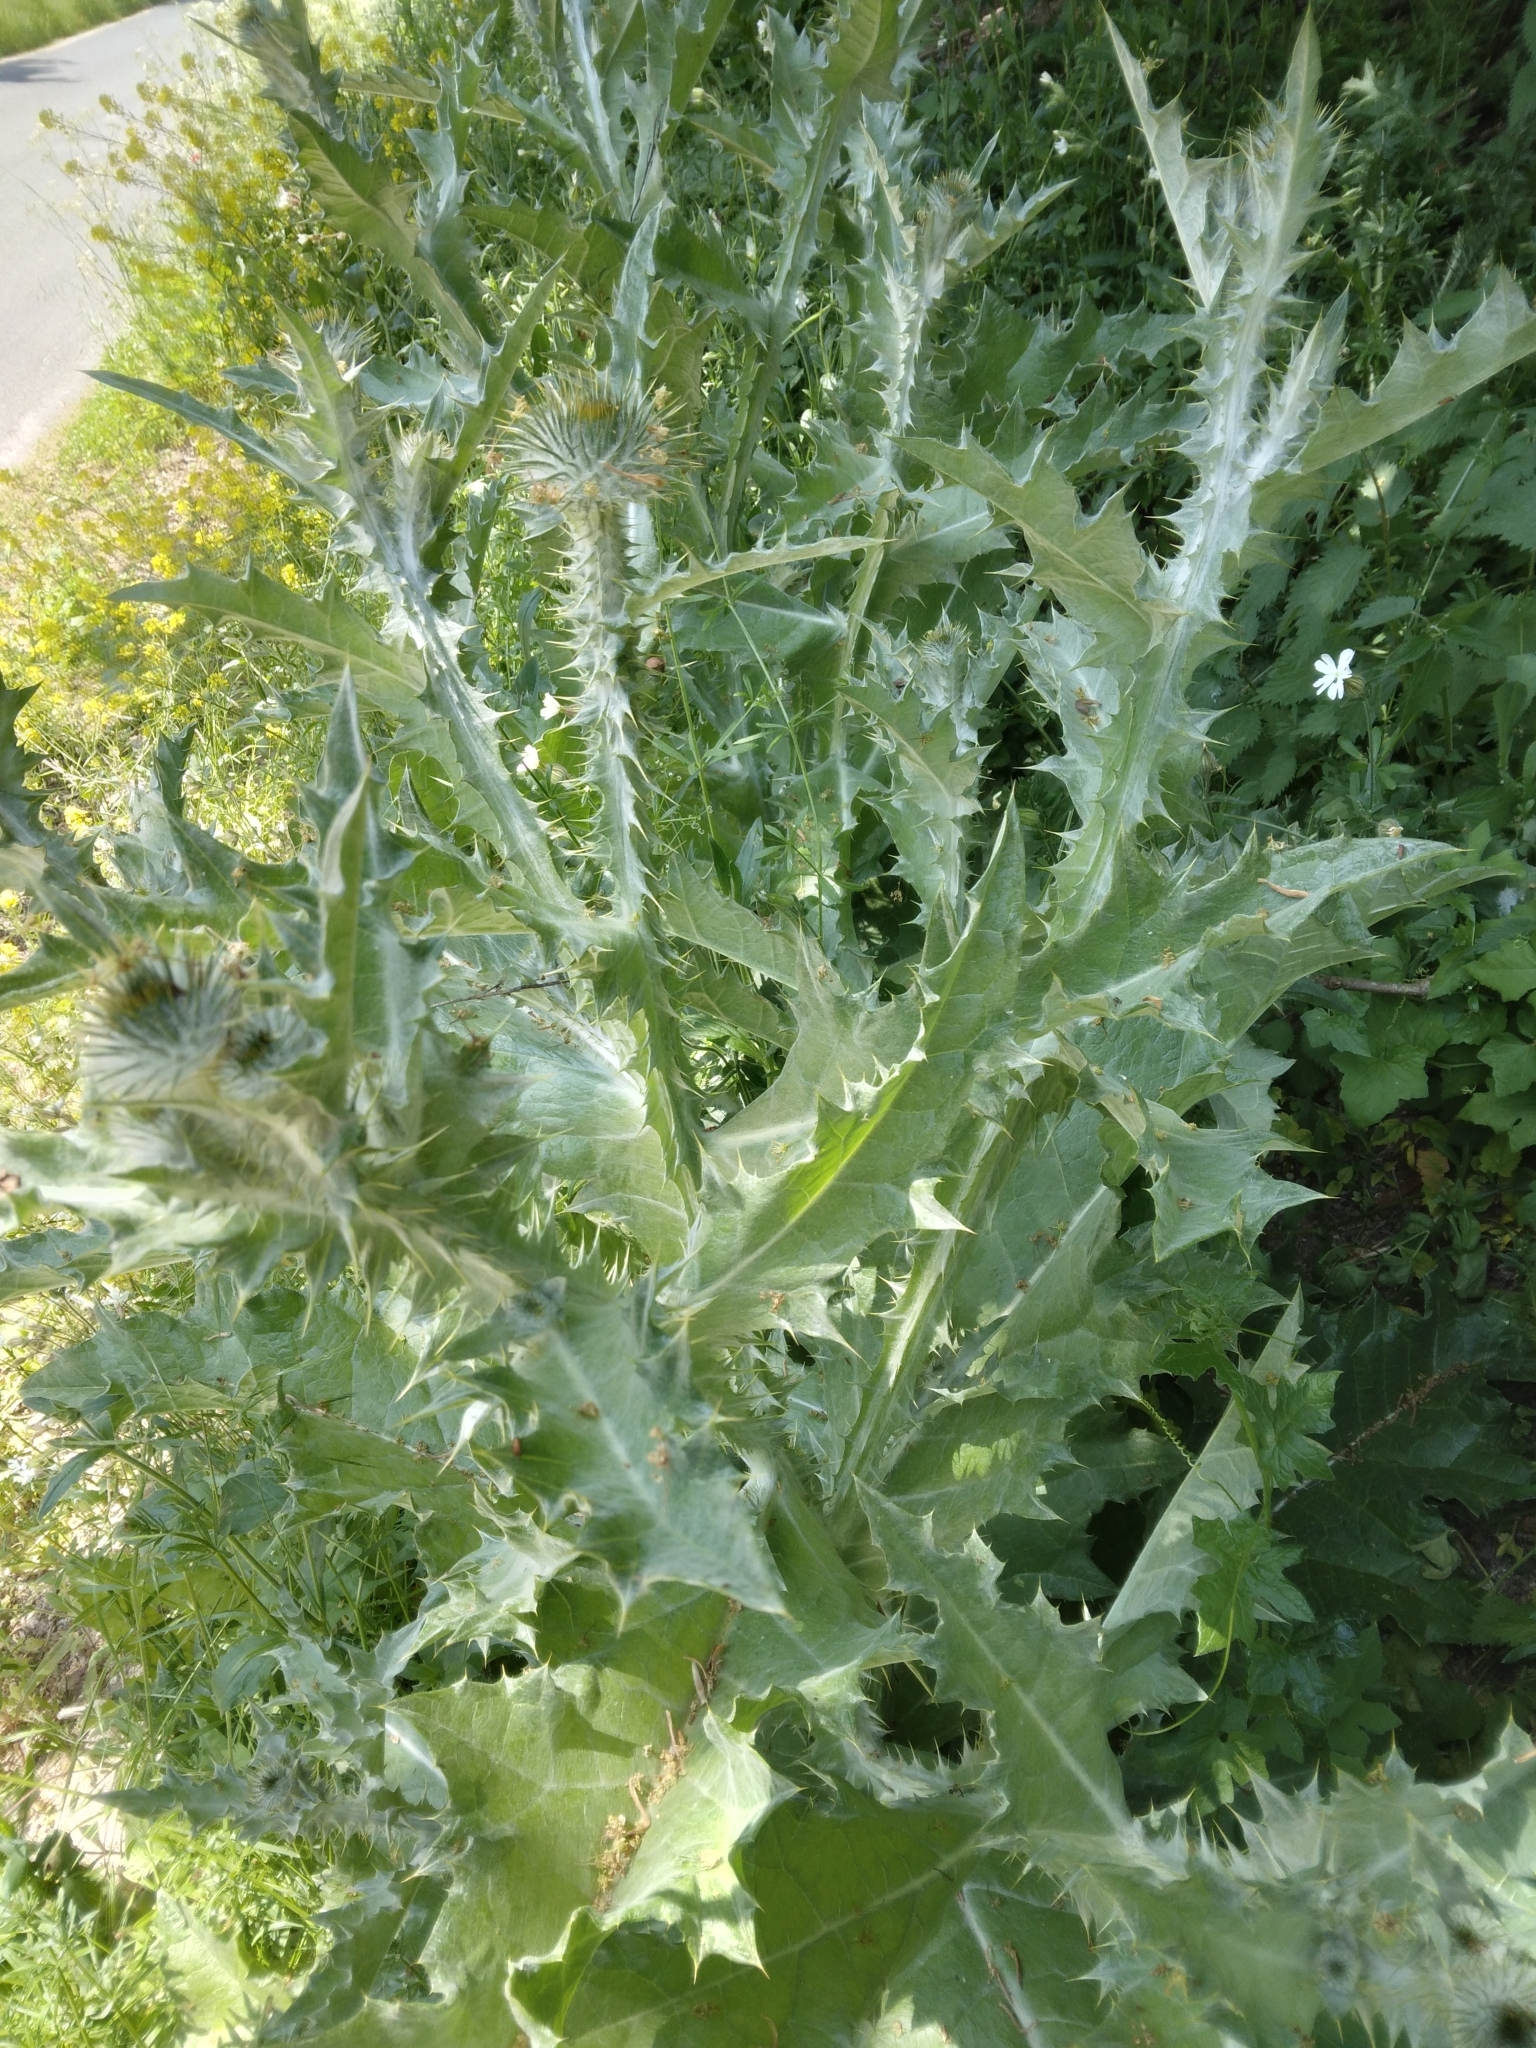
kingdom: Plantae
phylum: Tracheophyta
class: Magnoliopsida
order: Asterales
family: Asteraceae
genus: Onopordum
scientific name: Onopordum acanthium
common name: Scotch thistle
